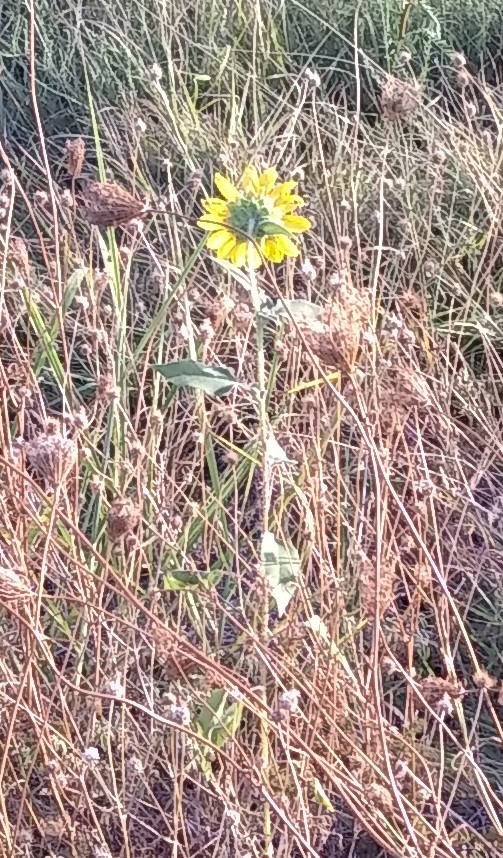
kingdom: Plantae
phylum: Tracheophyta
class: Magnoliopsida
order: Asterales
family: Asteraceae
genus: Helianthus
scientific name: Helianthus annuus
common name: Sunflower
